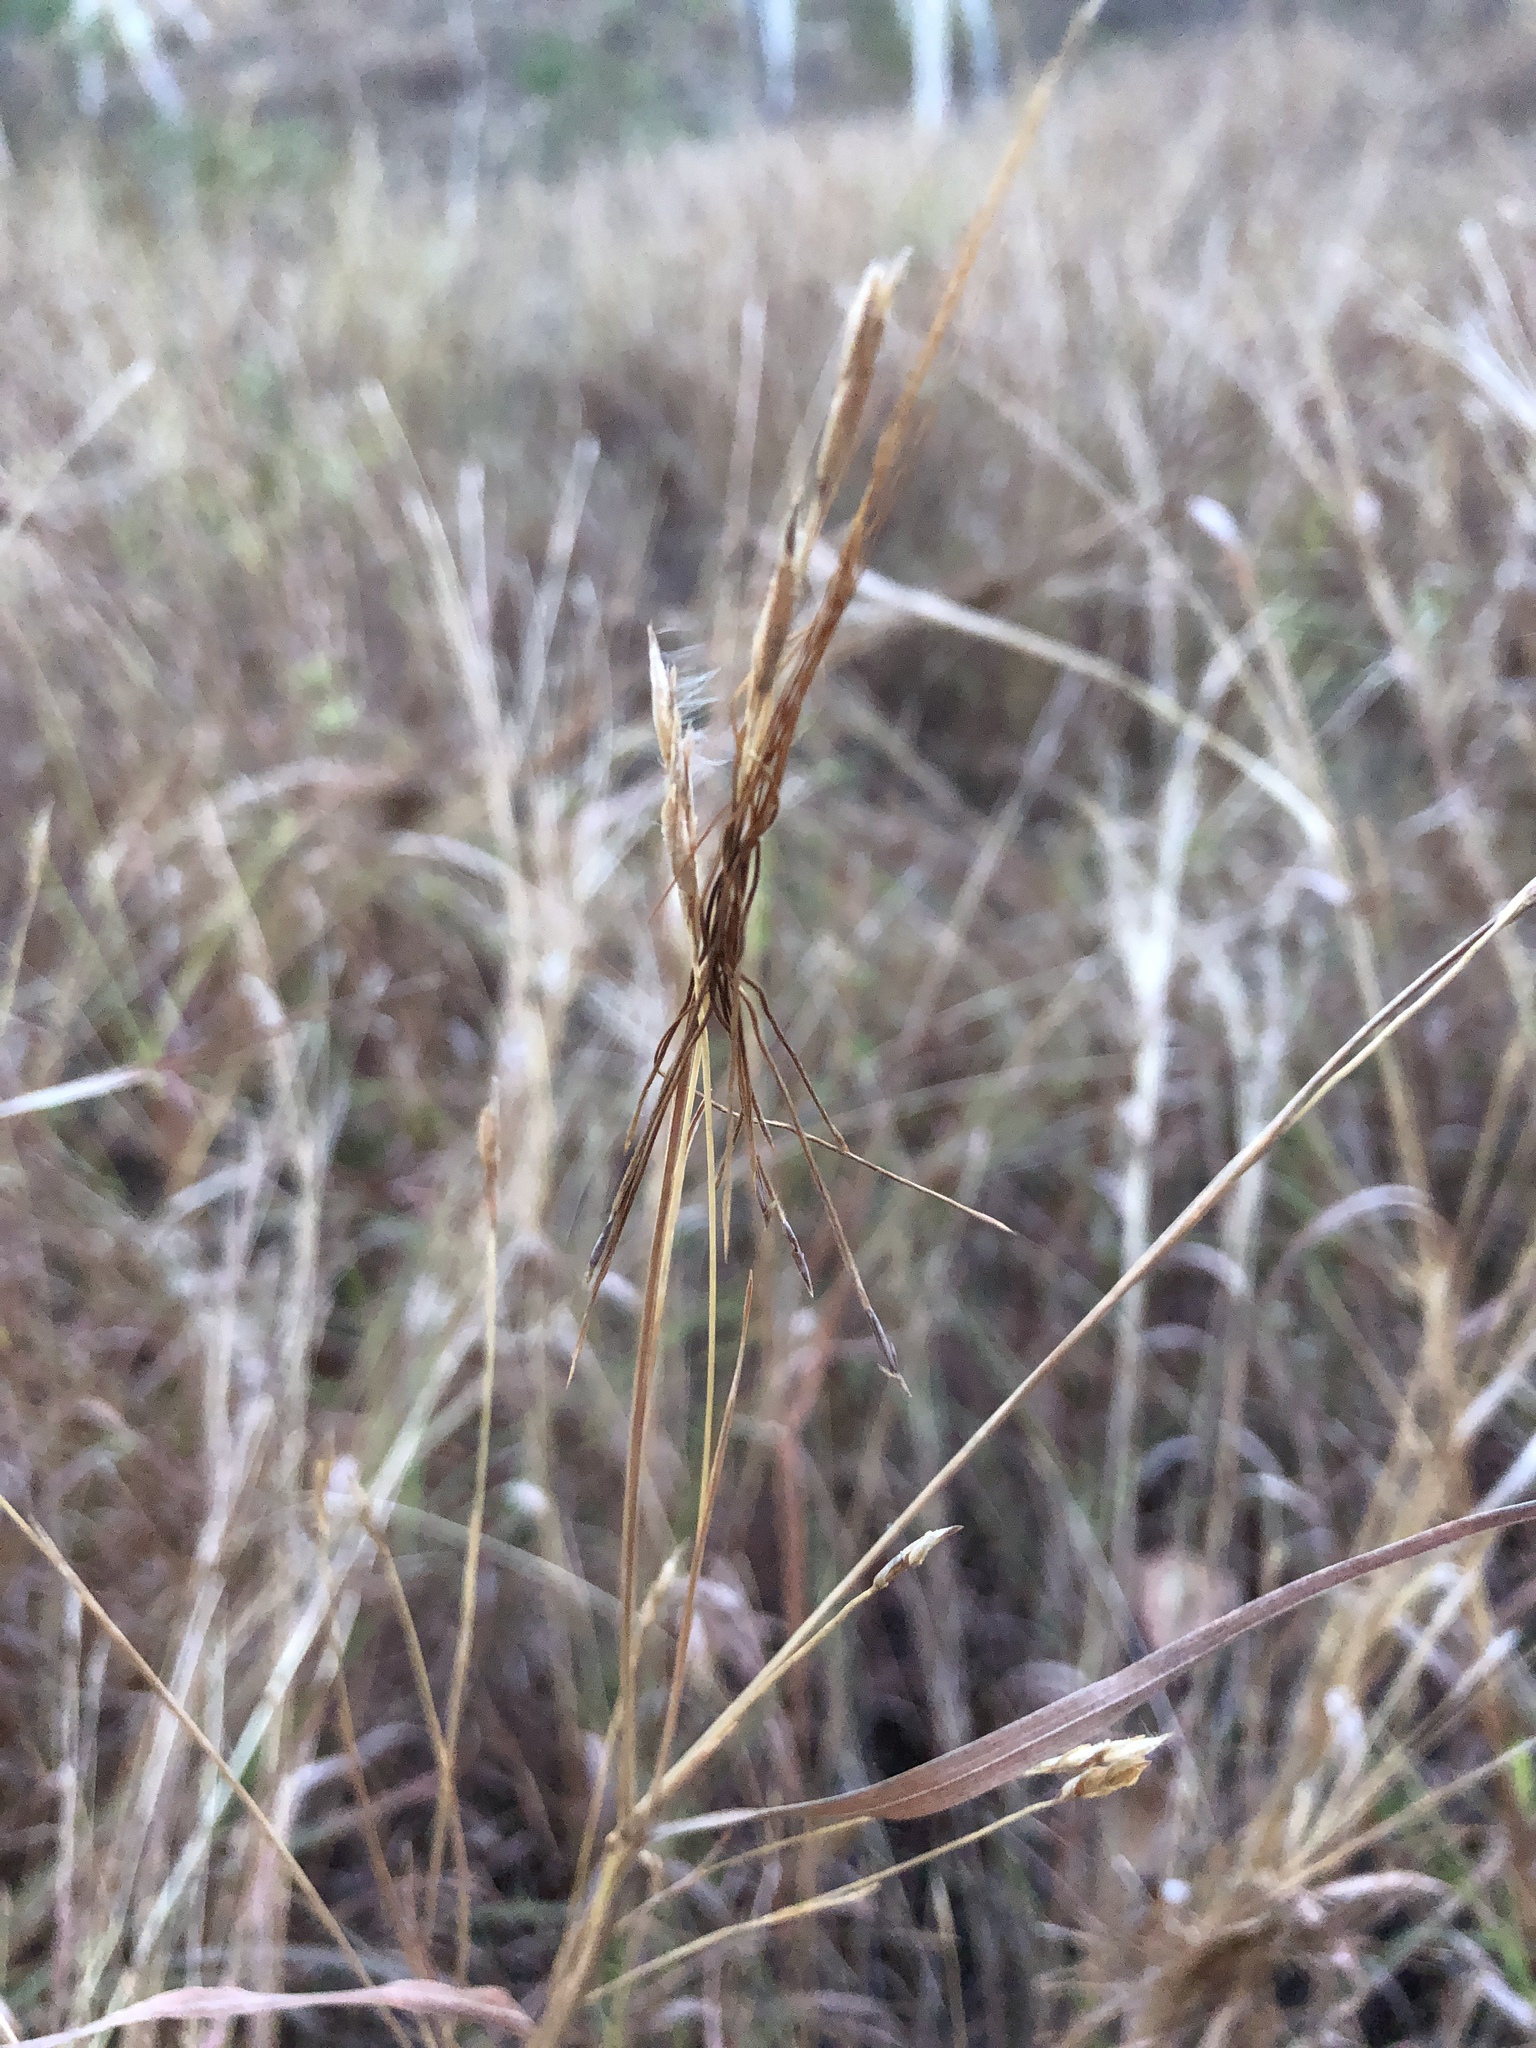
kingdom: Plantae
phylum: Tracheophyta
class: Liliopsida
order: Poales
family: Poaceae
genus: Heteropogon
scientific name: Heteropogon contortus
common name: Tanglehead
